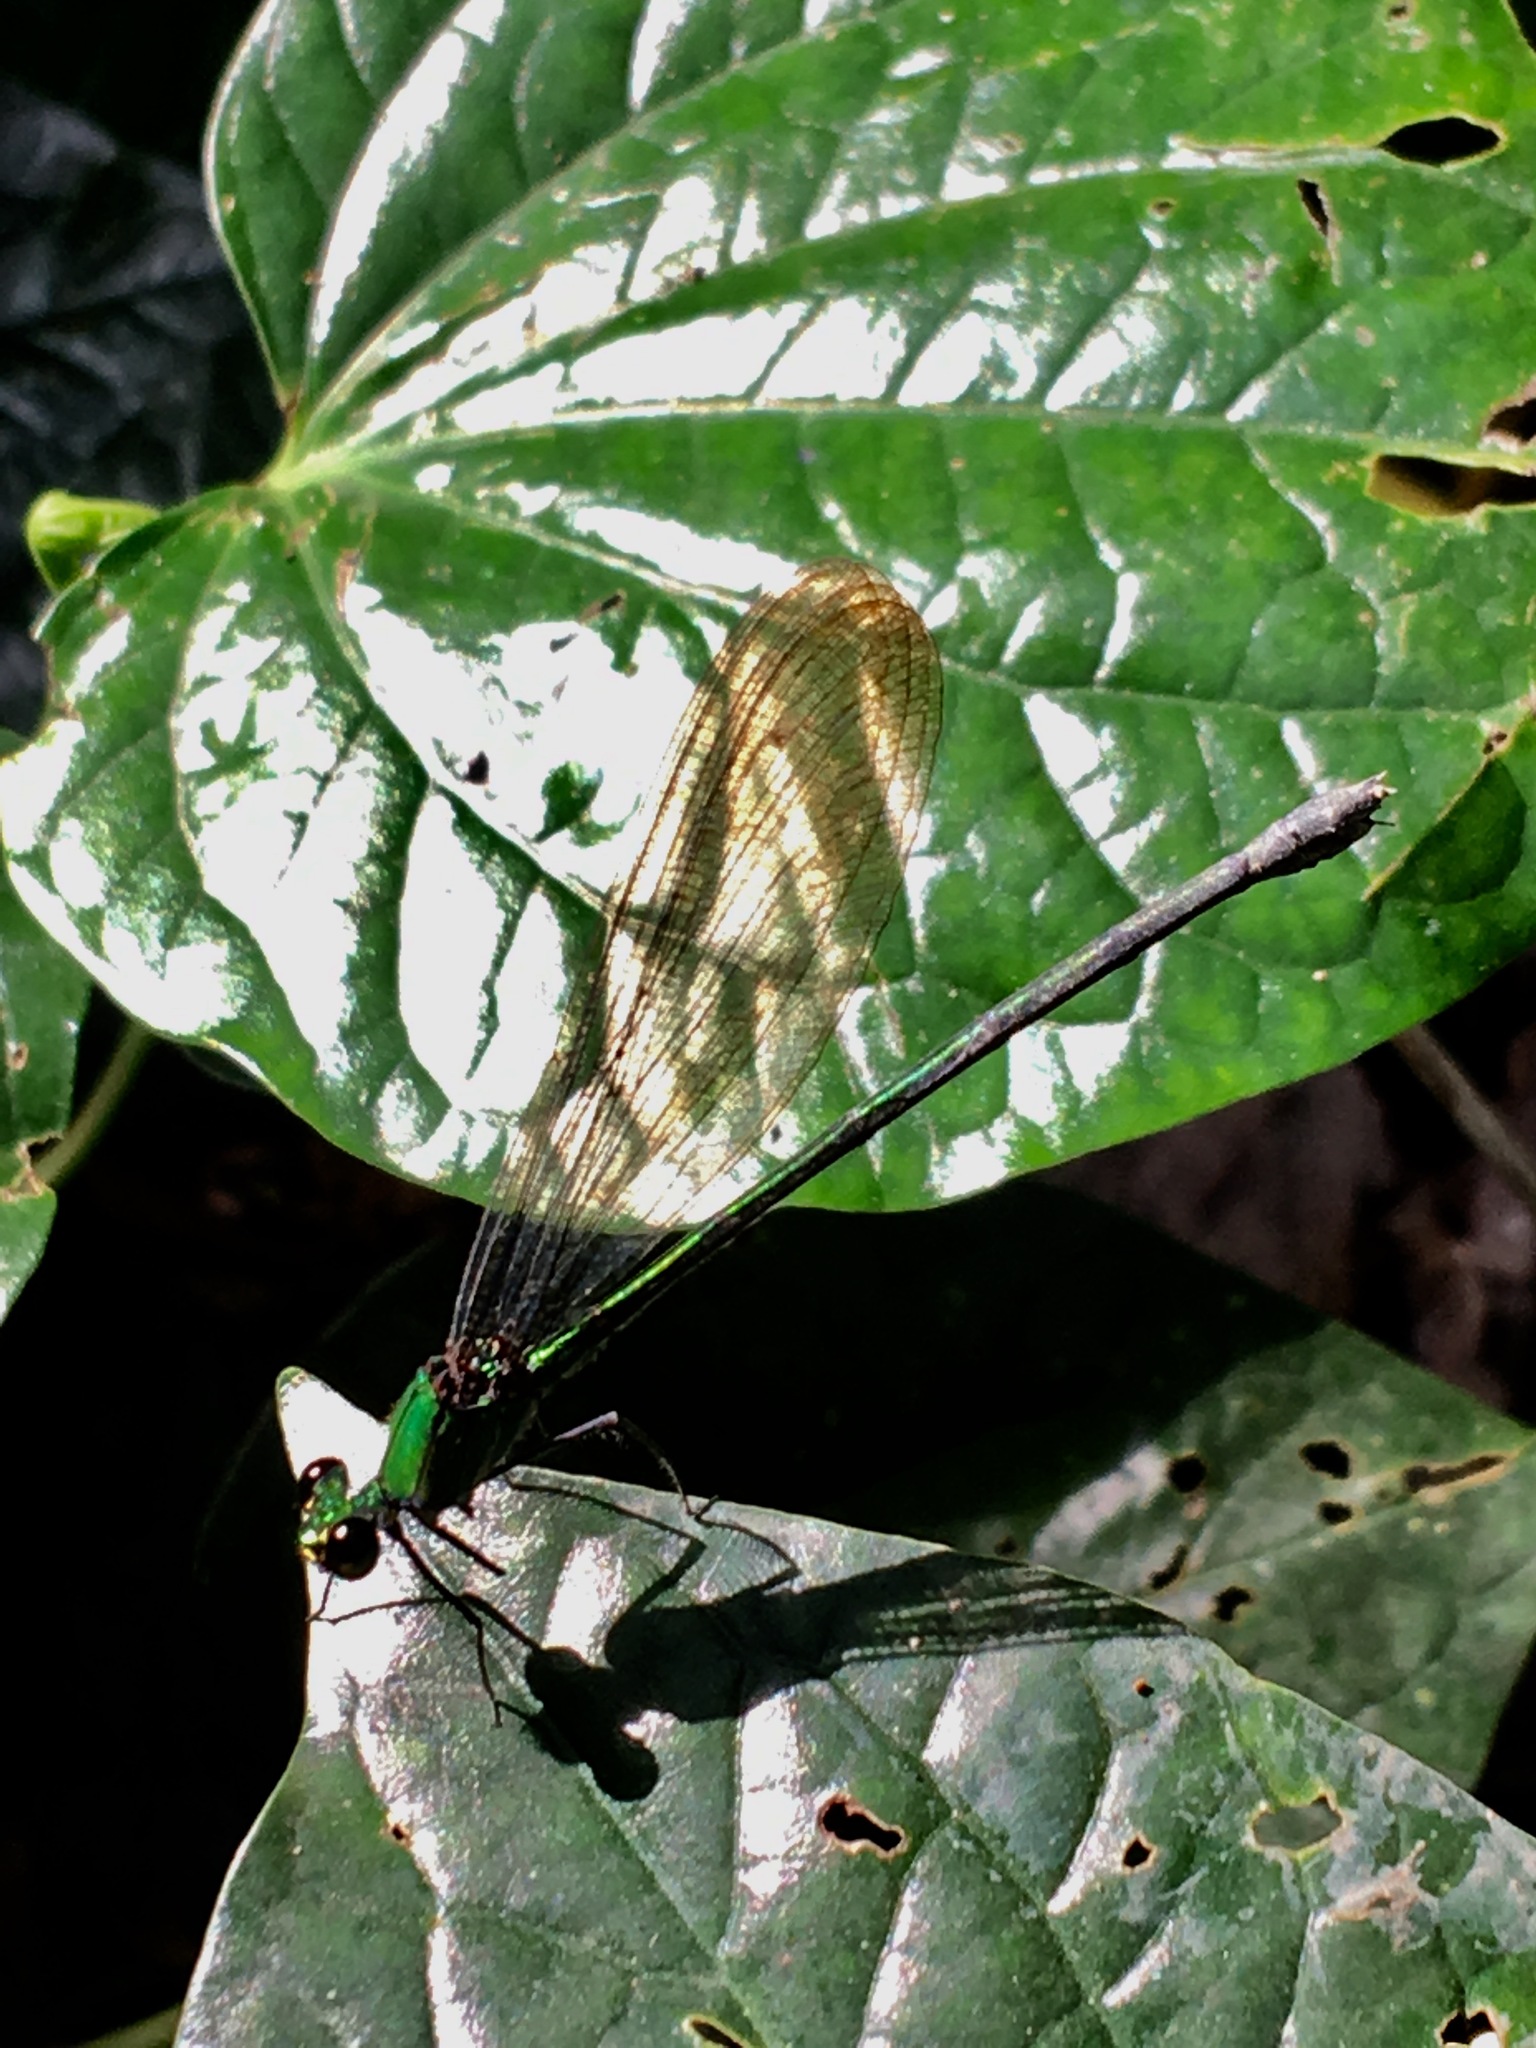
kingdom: Animalia
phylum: Arthropoda
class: Insecta
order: Odonata
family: Calopterygidae
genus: Vestalis
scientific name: Vestalis amethystina
